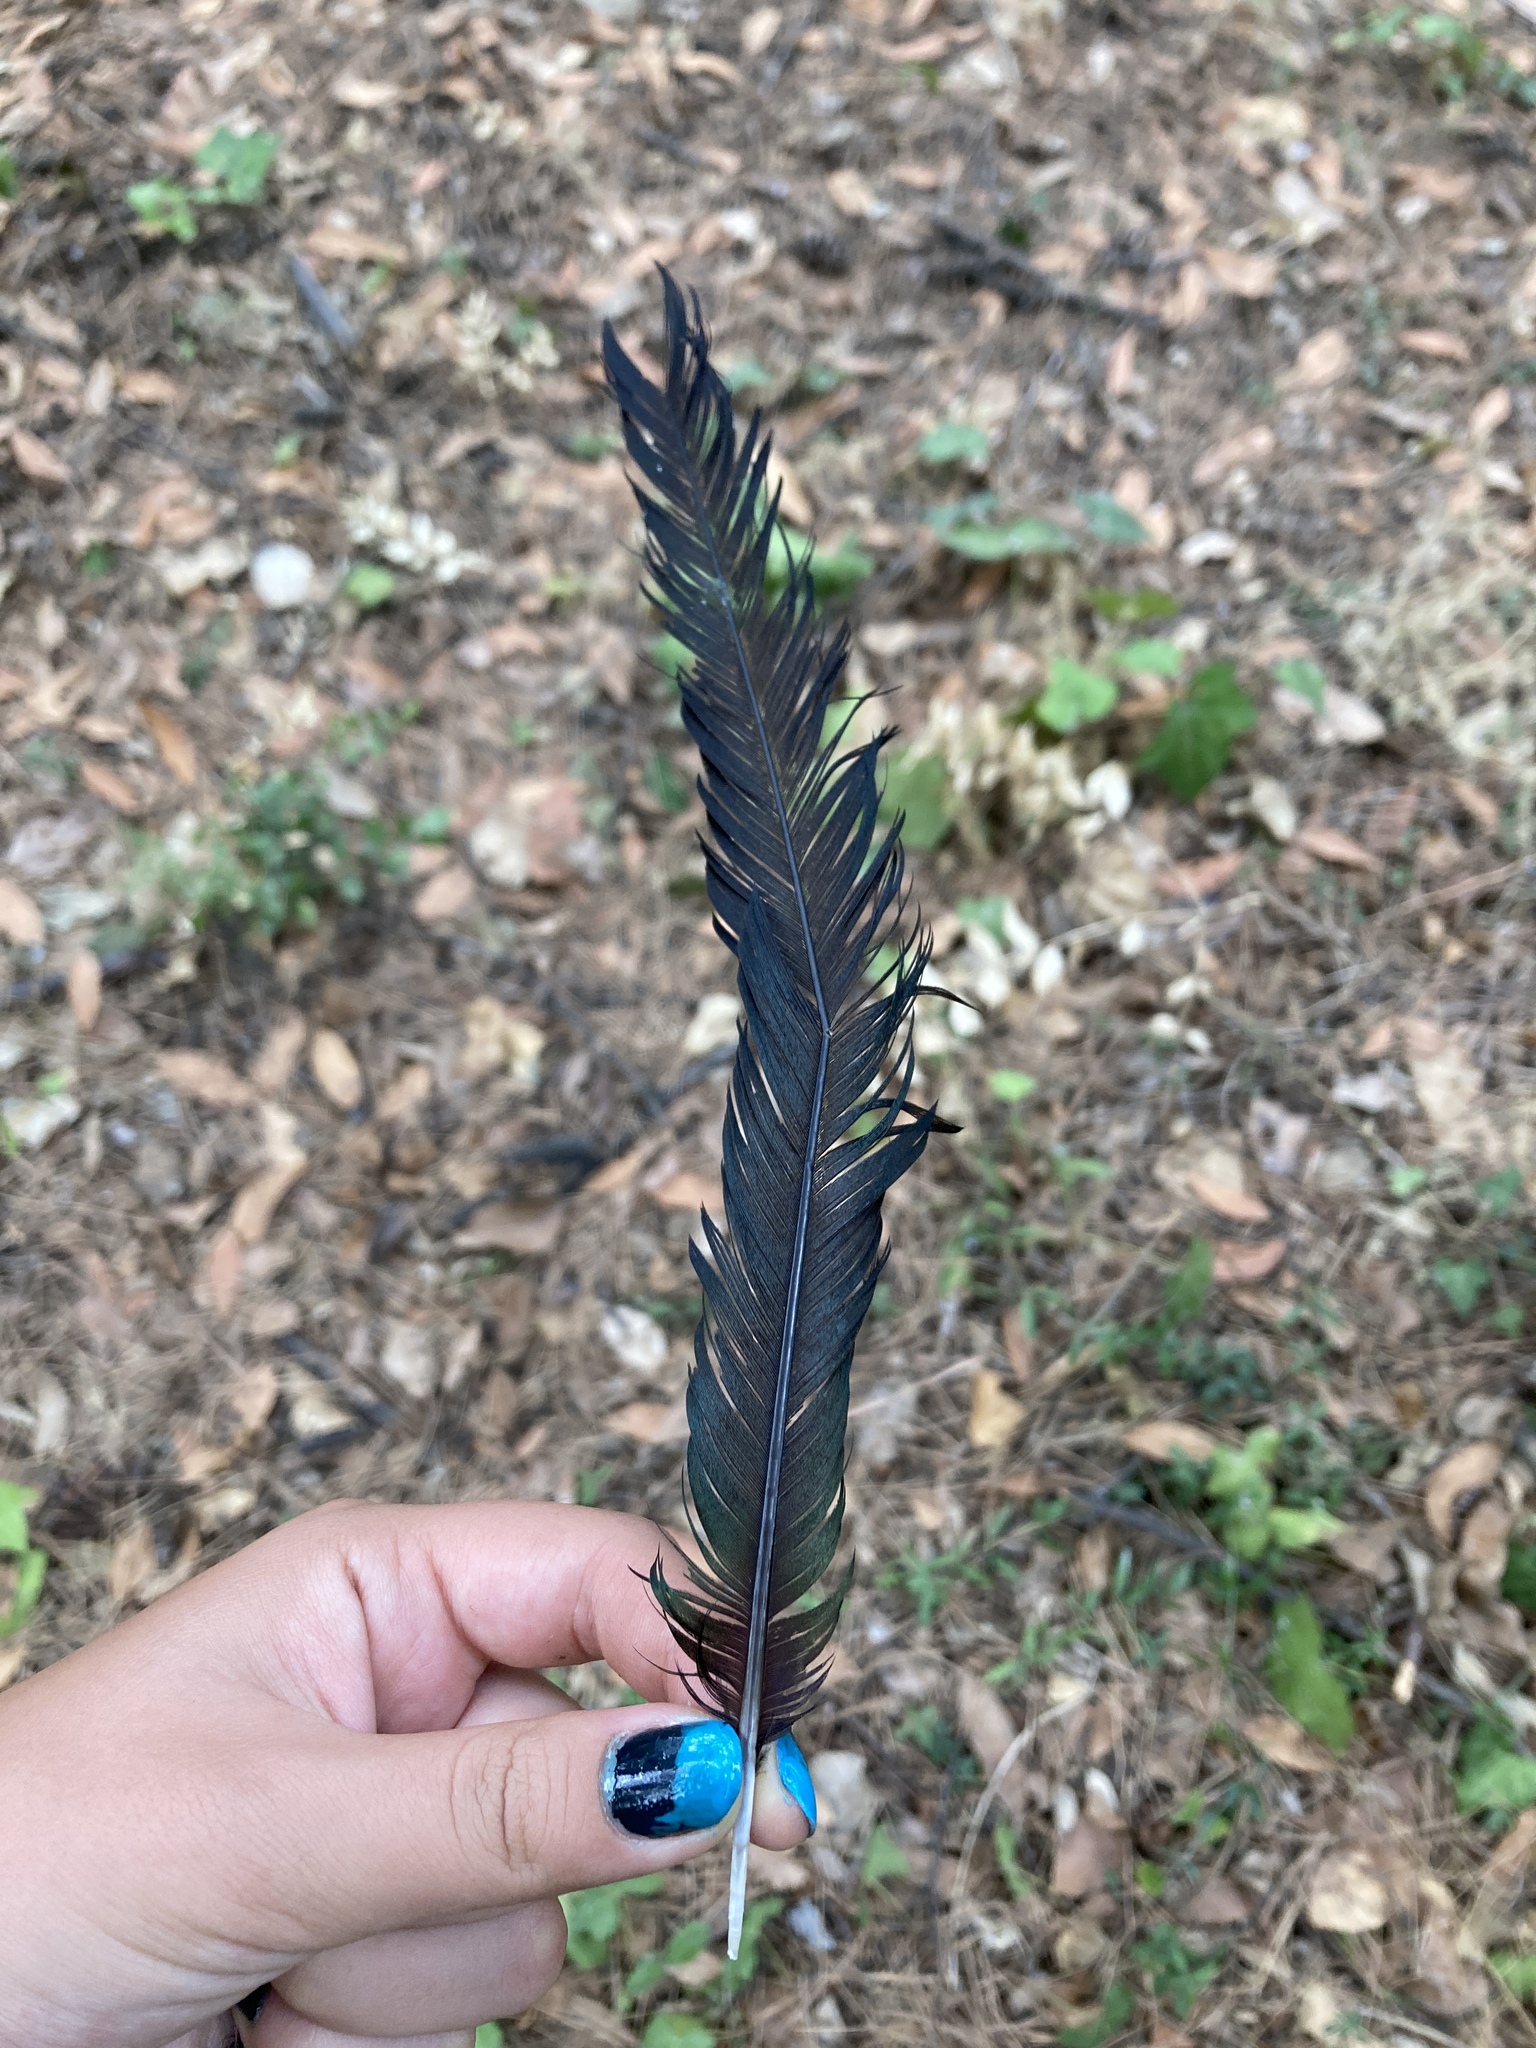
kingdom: Animalia
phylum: Chordata
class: Aves
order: Passeriformes
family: Corvidae
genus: Pica
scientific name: Pica pica
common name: Eurasian magpie
